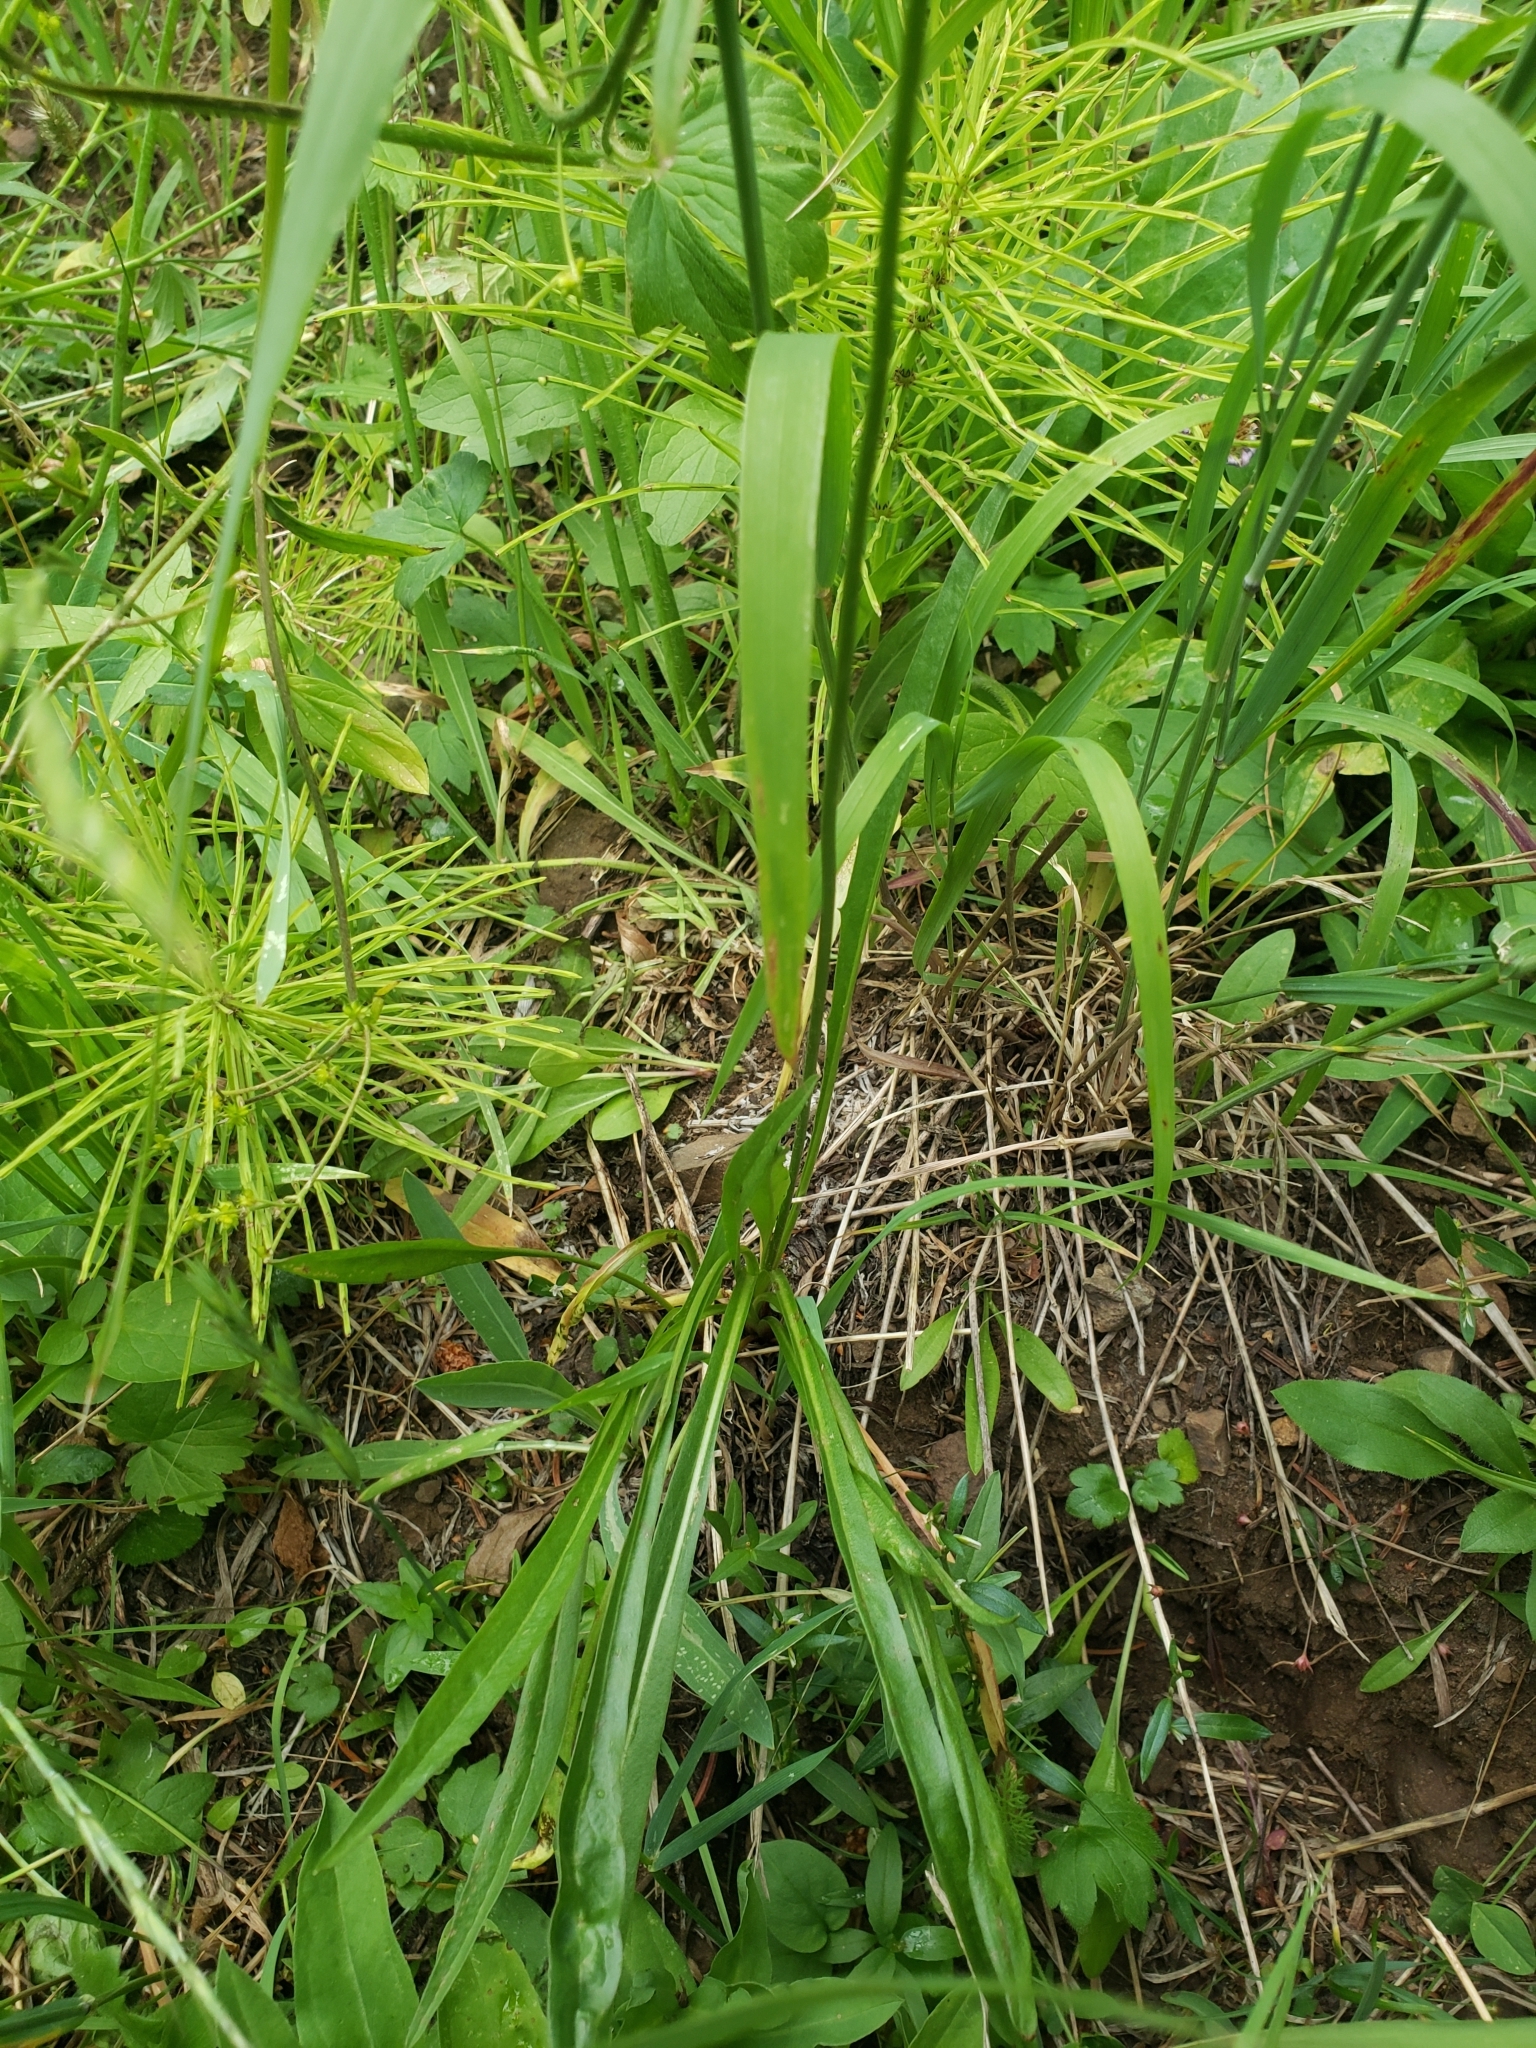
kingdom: Plantae
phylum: Tracheophyta
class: Magnoliopsida
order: Asterales
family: Asteraceae
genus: Agoseris
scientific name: Agoseris aurantiaca
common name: Mountain agoseris
